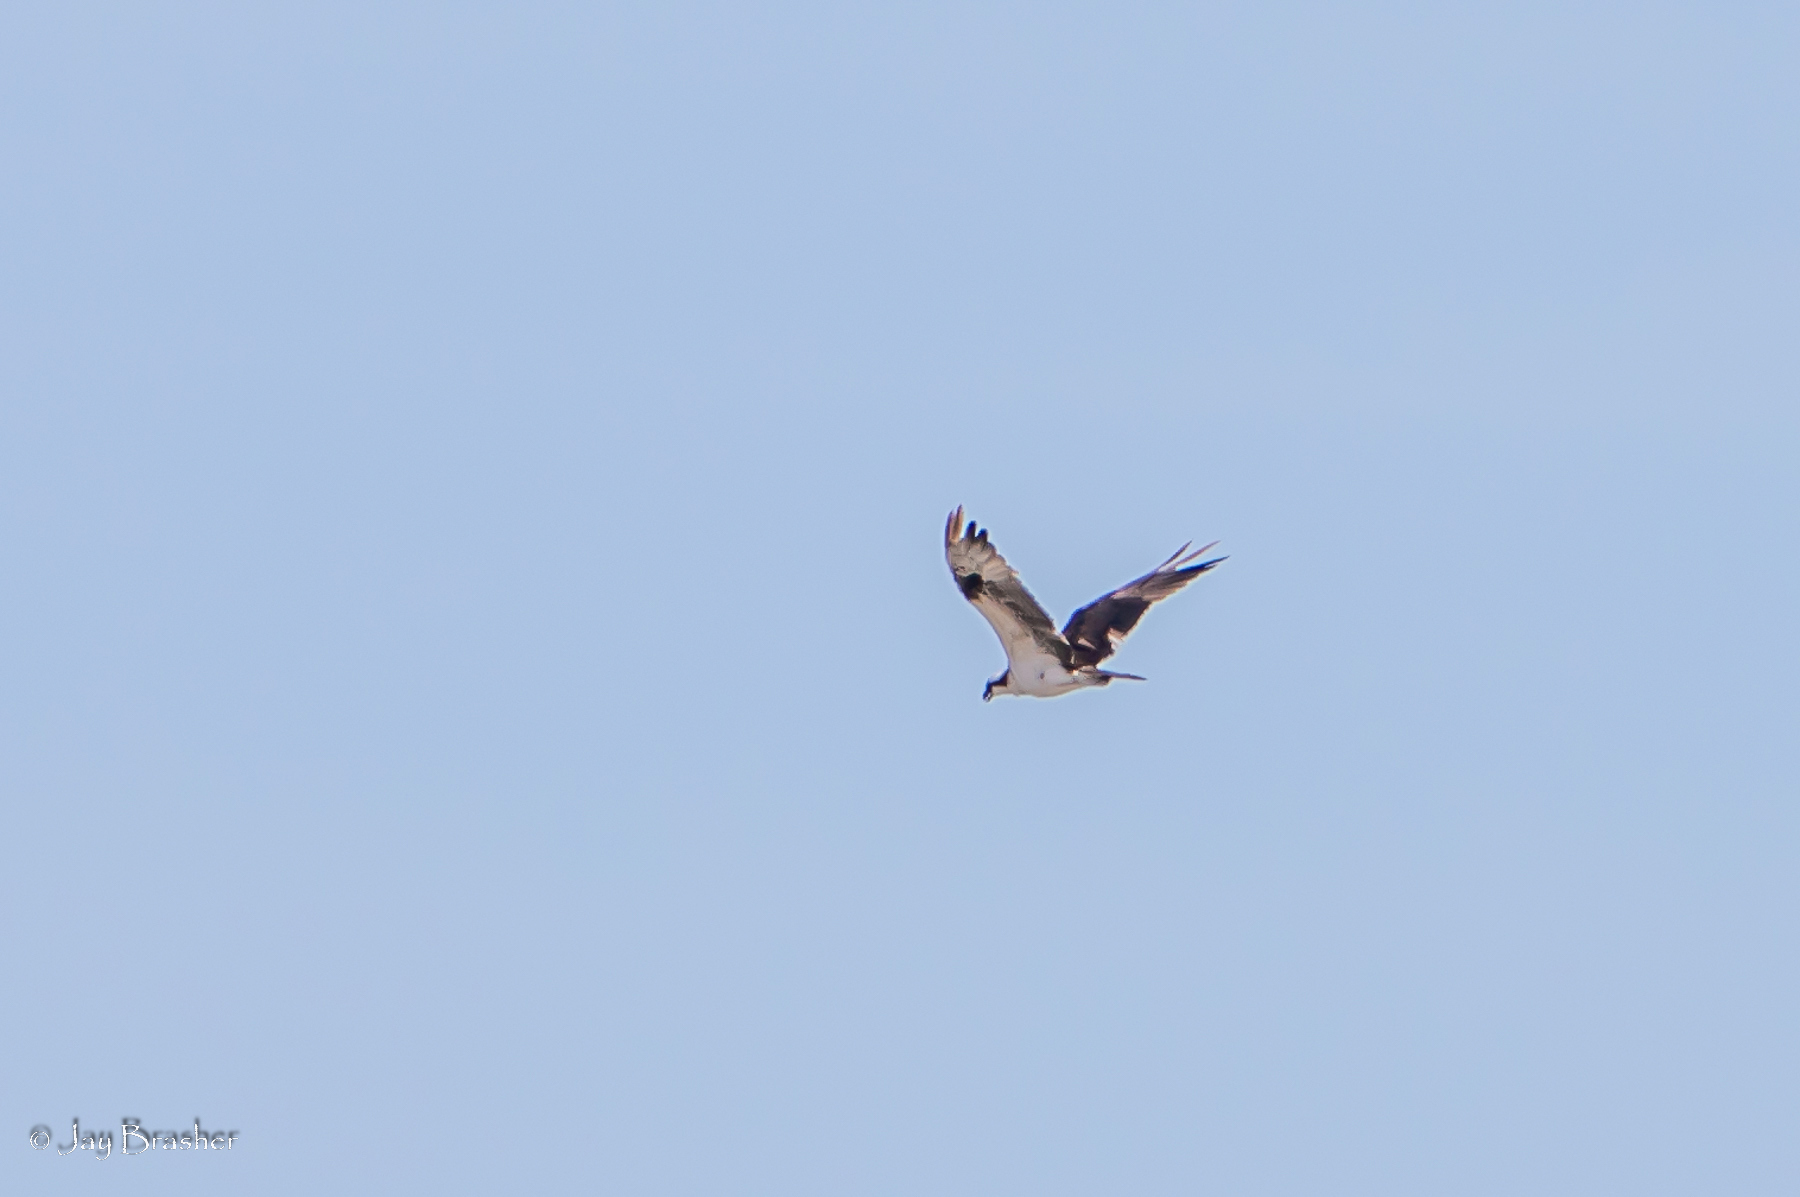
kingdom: Animalia
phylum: Chordata
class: Aves
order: Accipitriformes
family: Pandionidae
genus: Pandion
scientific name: Pandion haliaetus
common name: Osprey
